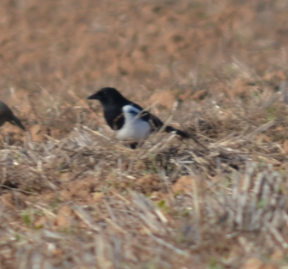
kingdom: Animalia
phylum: Chordata
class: Aves
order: Passeriformes
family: Corvidae
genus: Pica
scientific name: Pica pica
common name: Eurasian magpie
